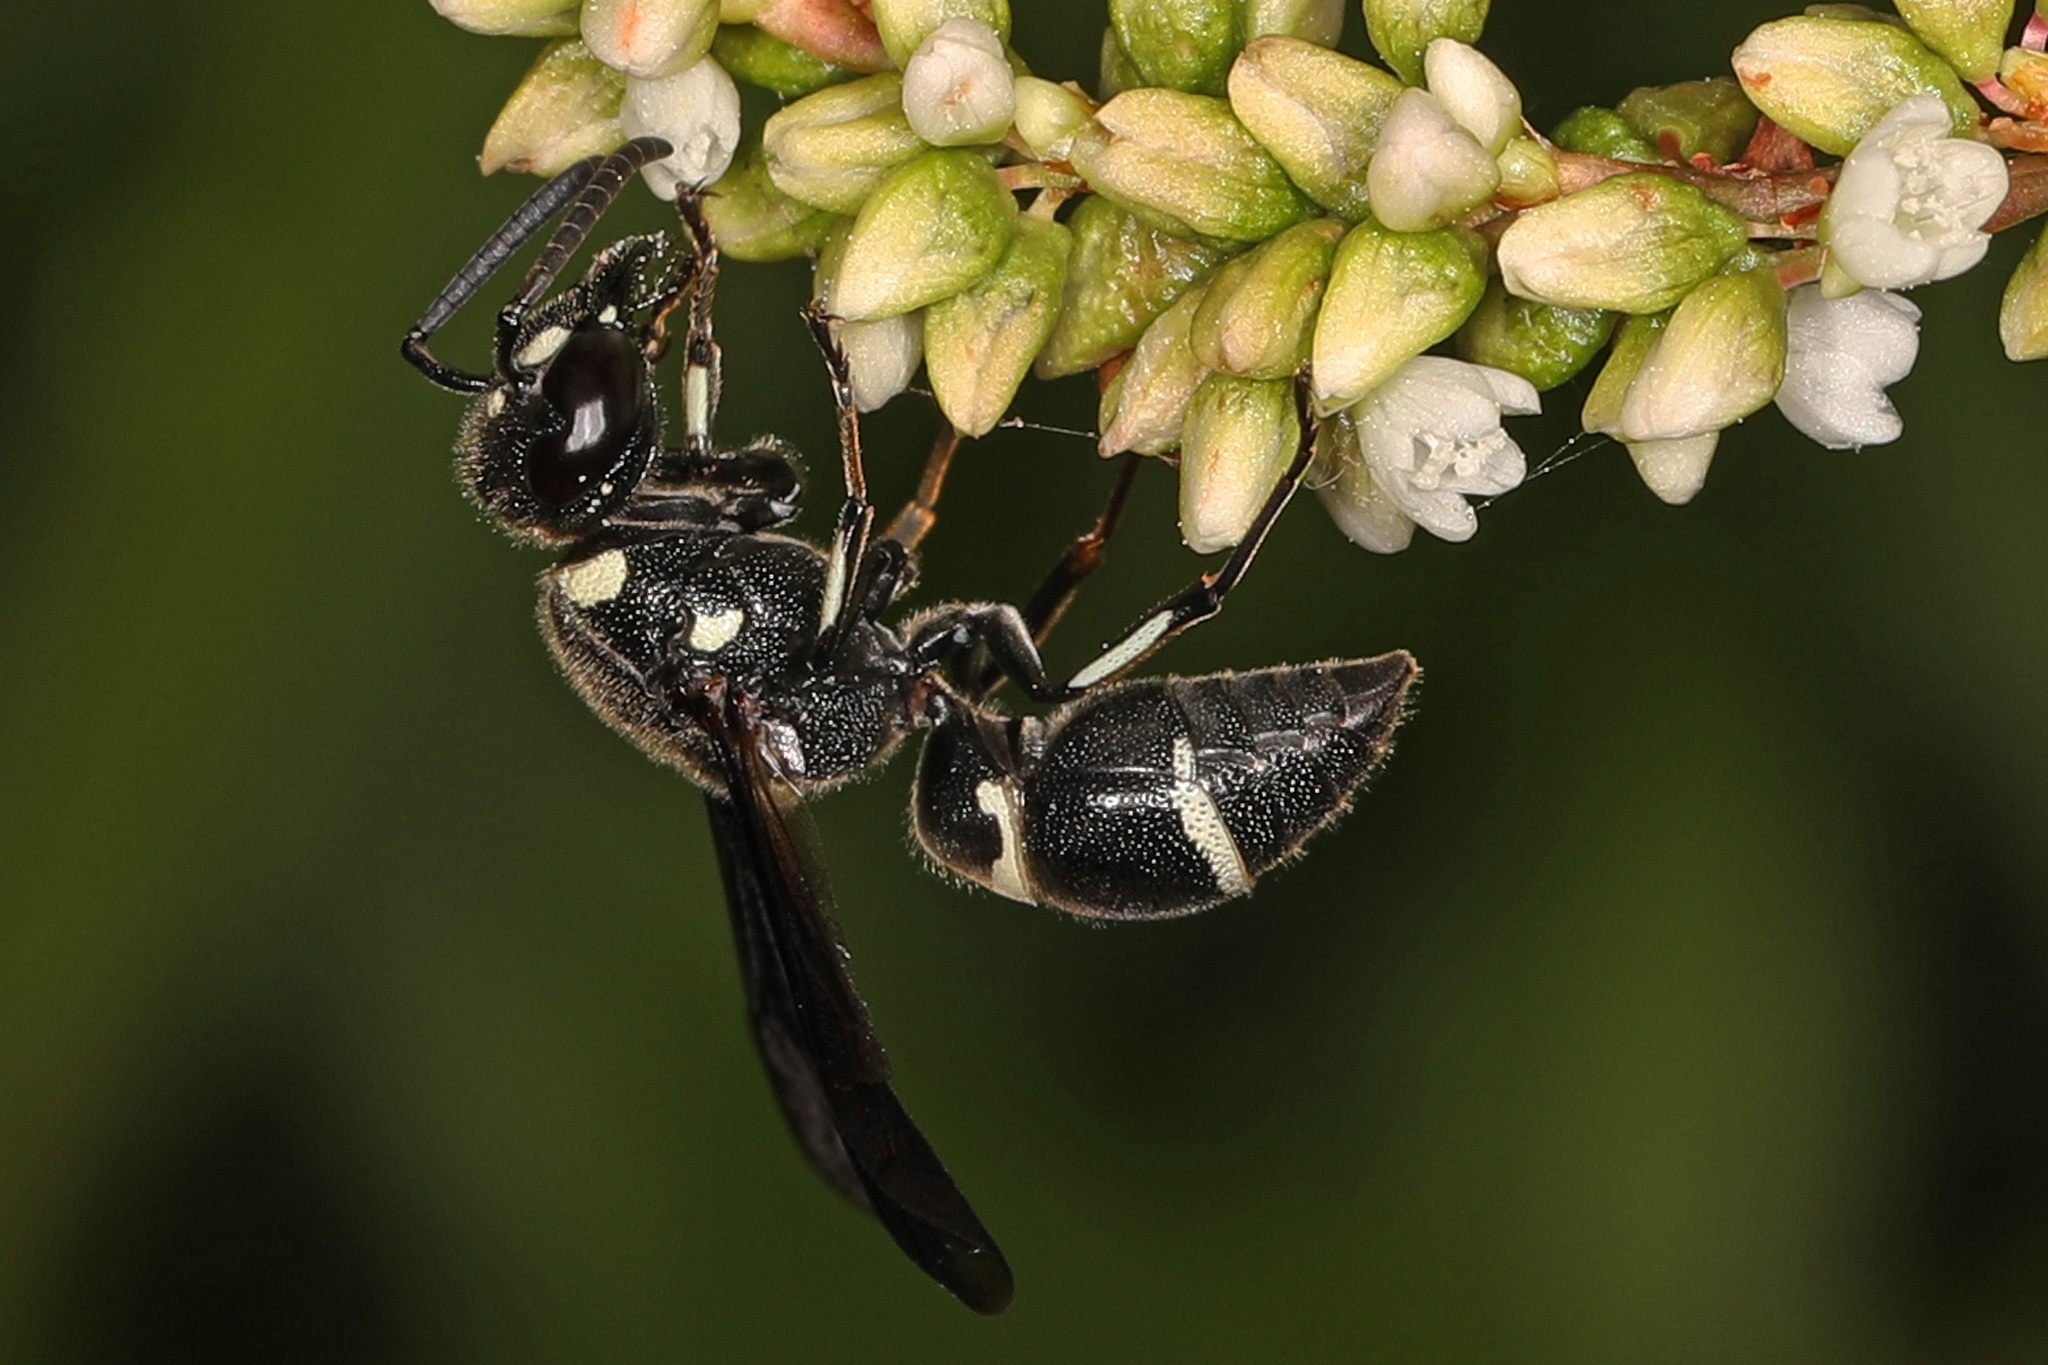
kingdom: Animalia
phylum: Arthropoda
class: Insecta
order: Hymenoptera
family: Eumenidae
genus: Euodynerus
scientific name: Euodynerus schwarzi
